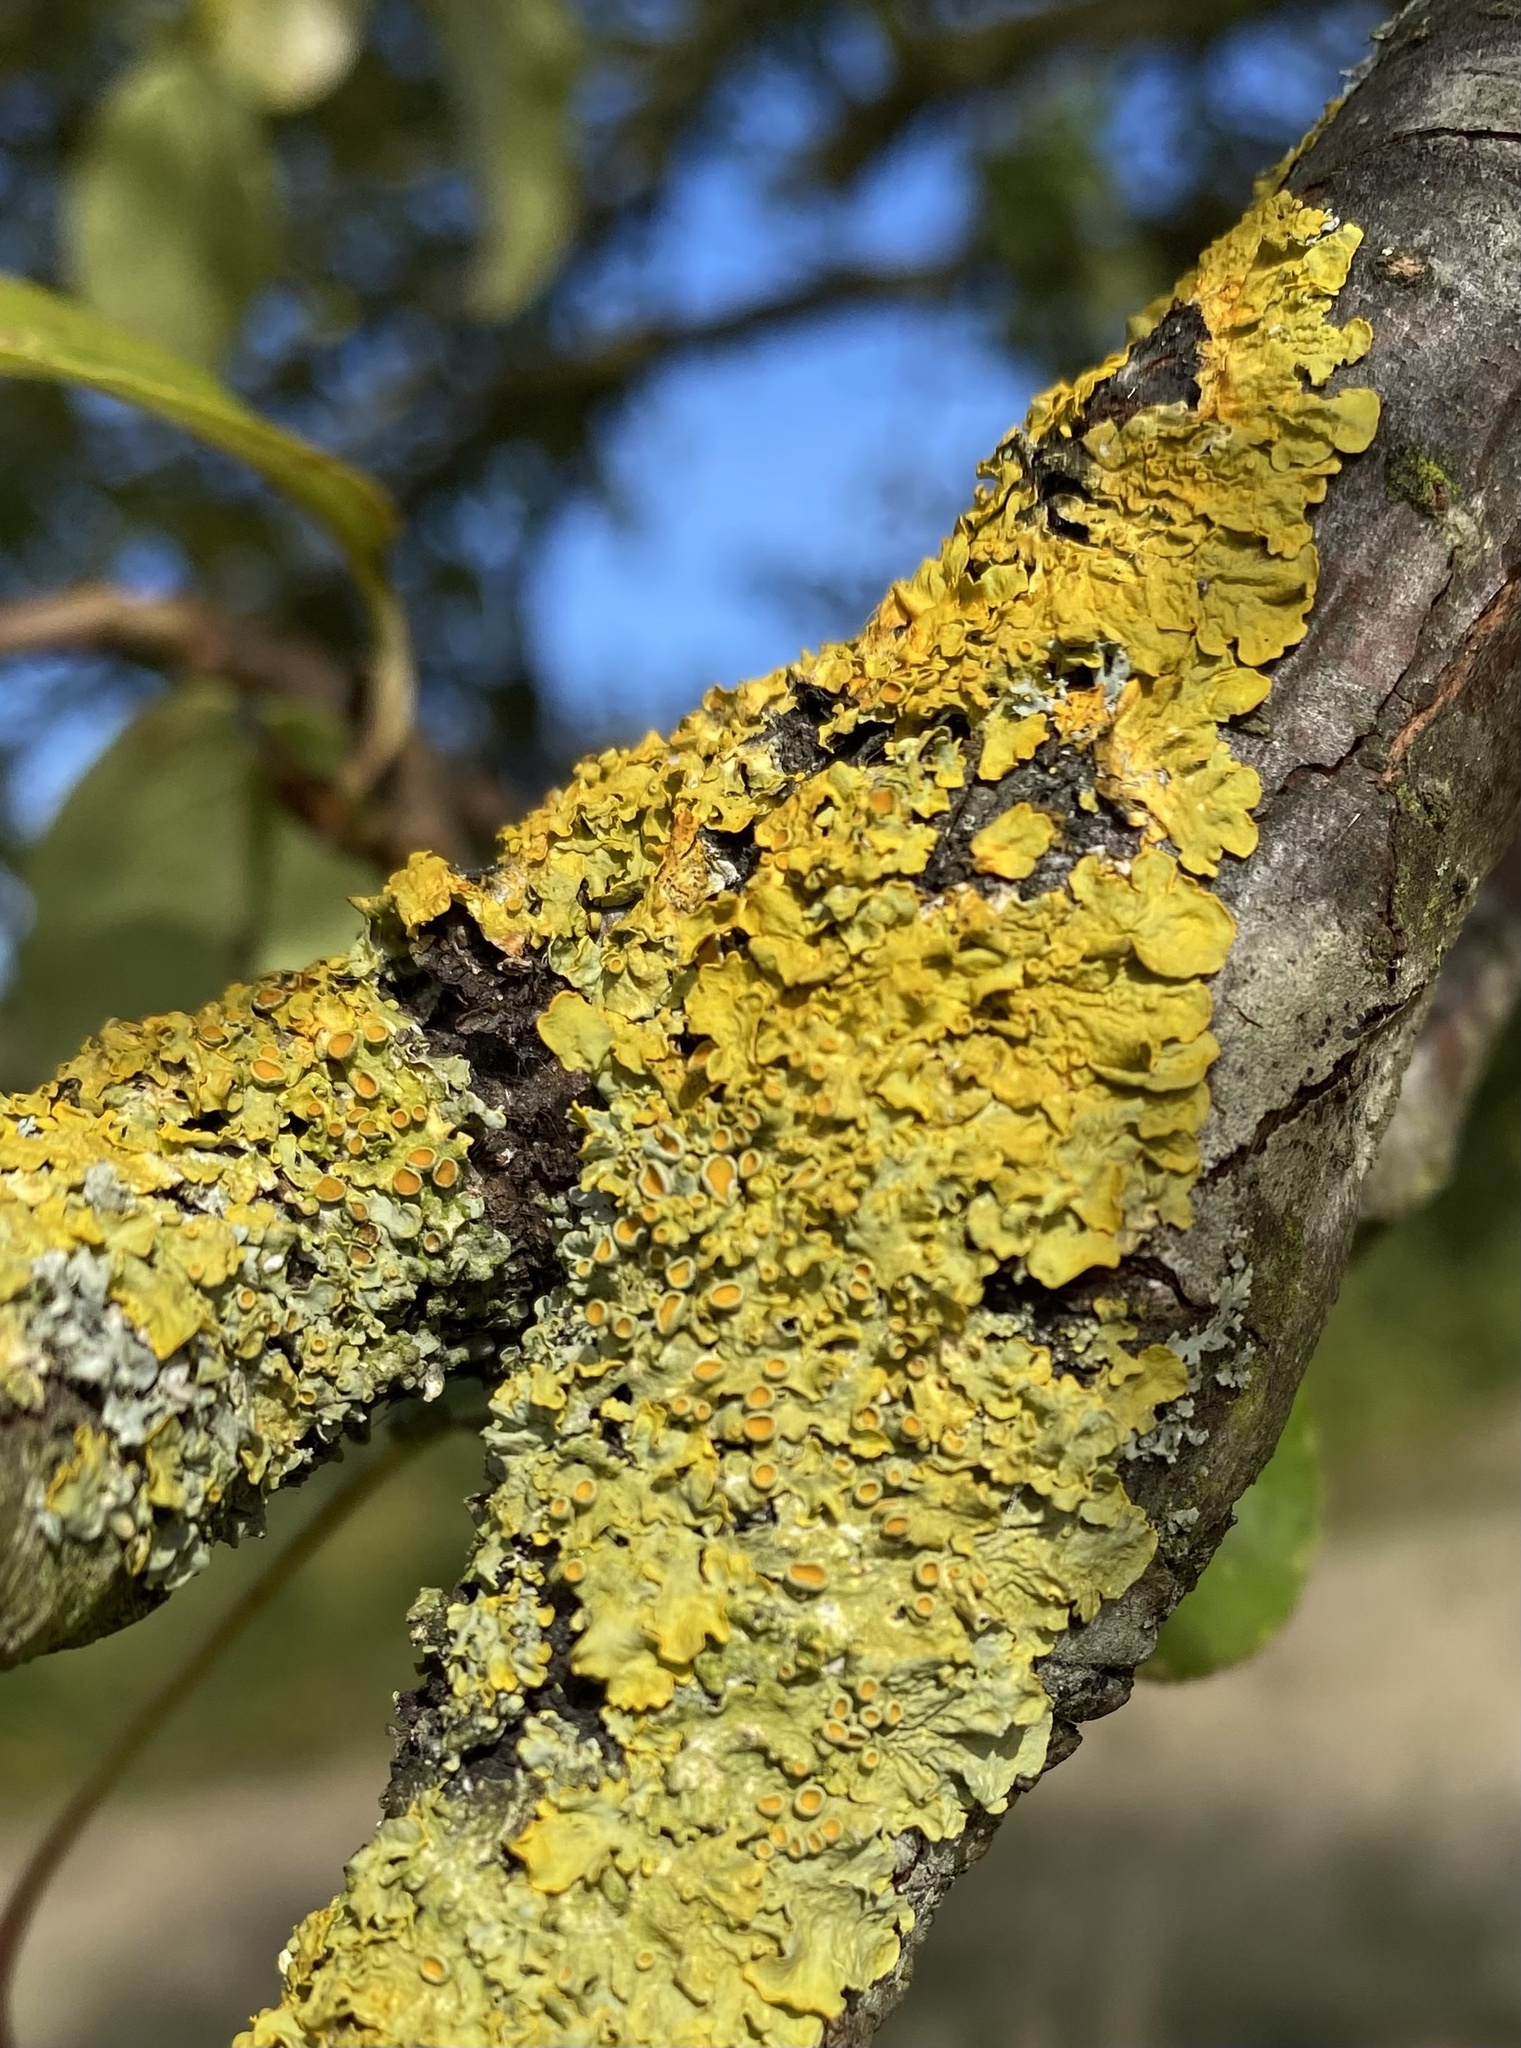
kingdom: Fungi
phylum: Ascomycota
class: Lecanoromycetes
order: Teloschistales
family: Teloschistaceae
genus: Xanthoria
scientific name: Xanthoria parietina
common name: Common orange lichen
